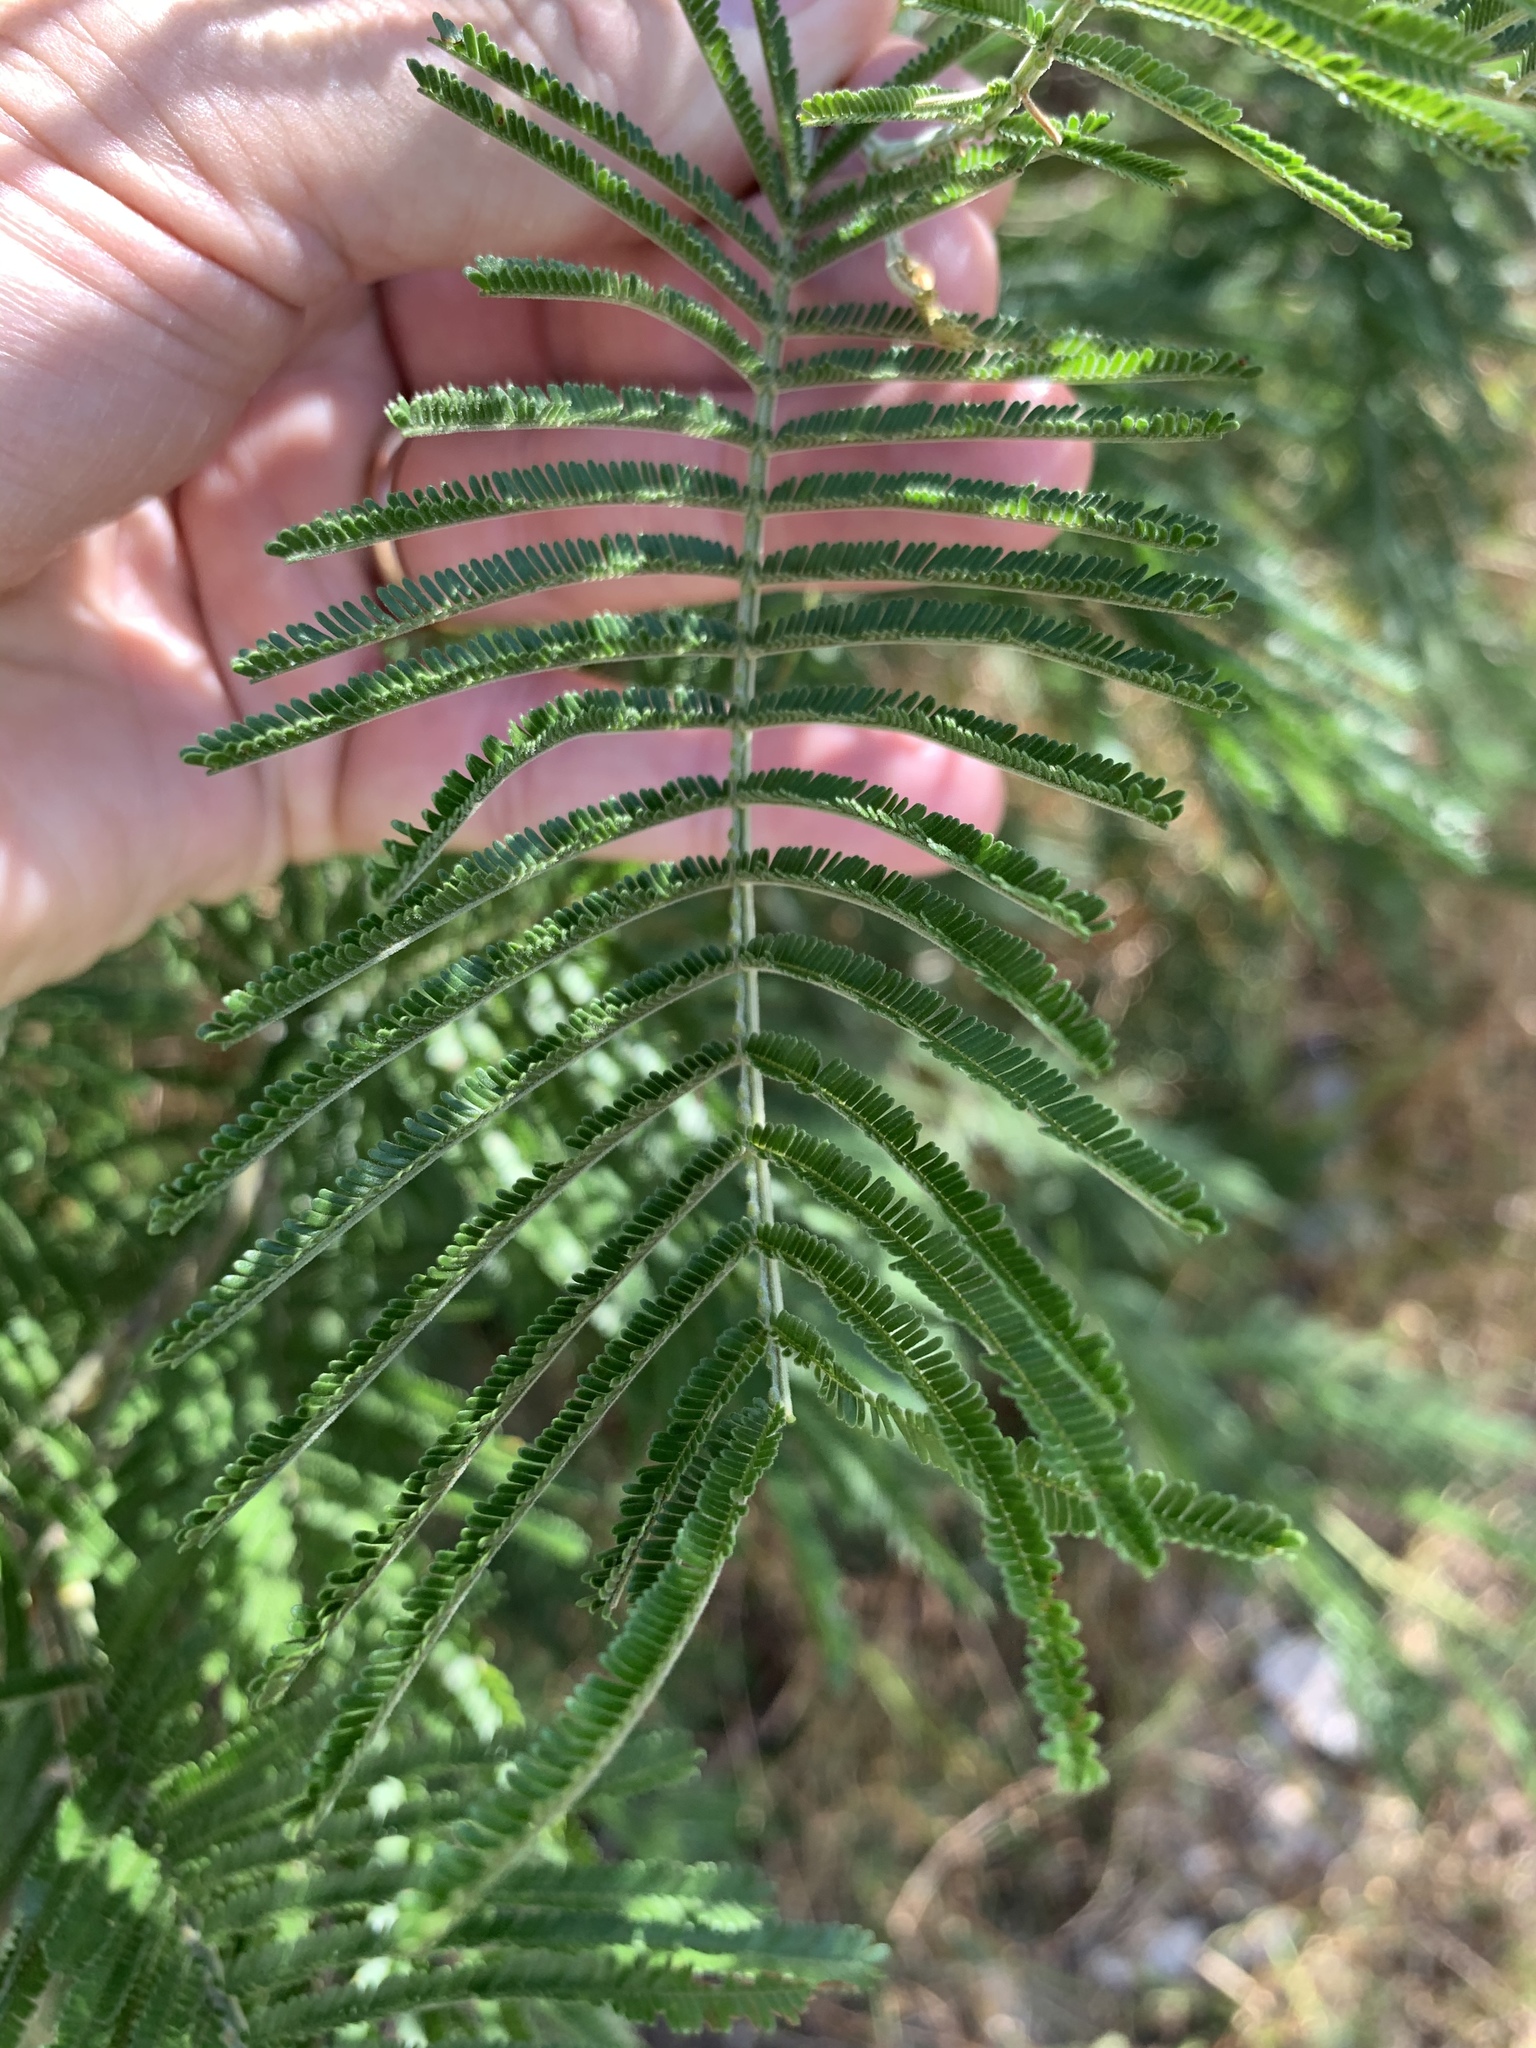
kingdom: Plantae
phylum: Tracheophyta
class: Magnoliopsida
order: Fabales
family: Fabaceae
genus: Acacia
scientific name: Acacia mearnsii
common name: Black wattle
